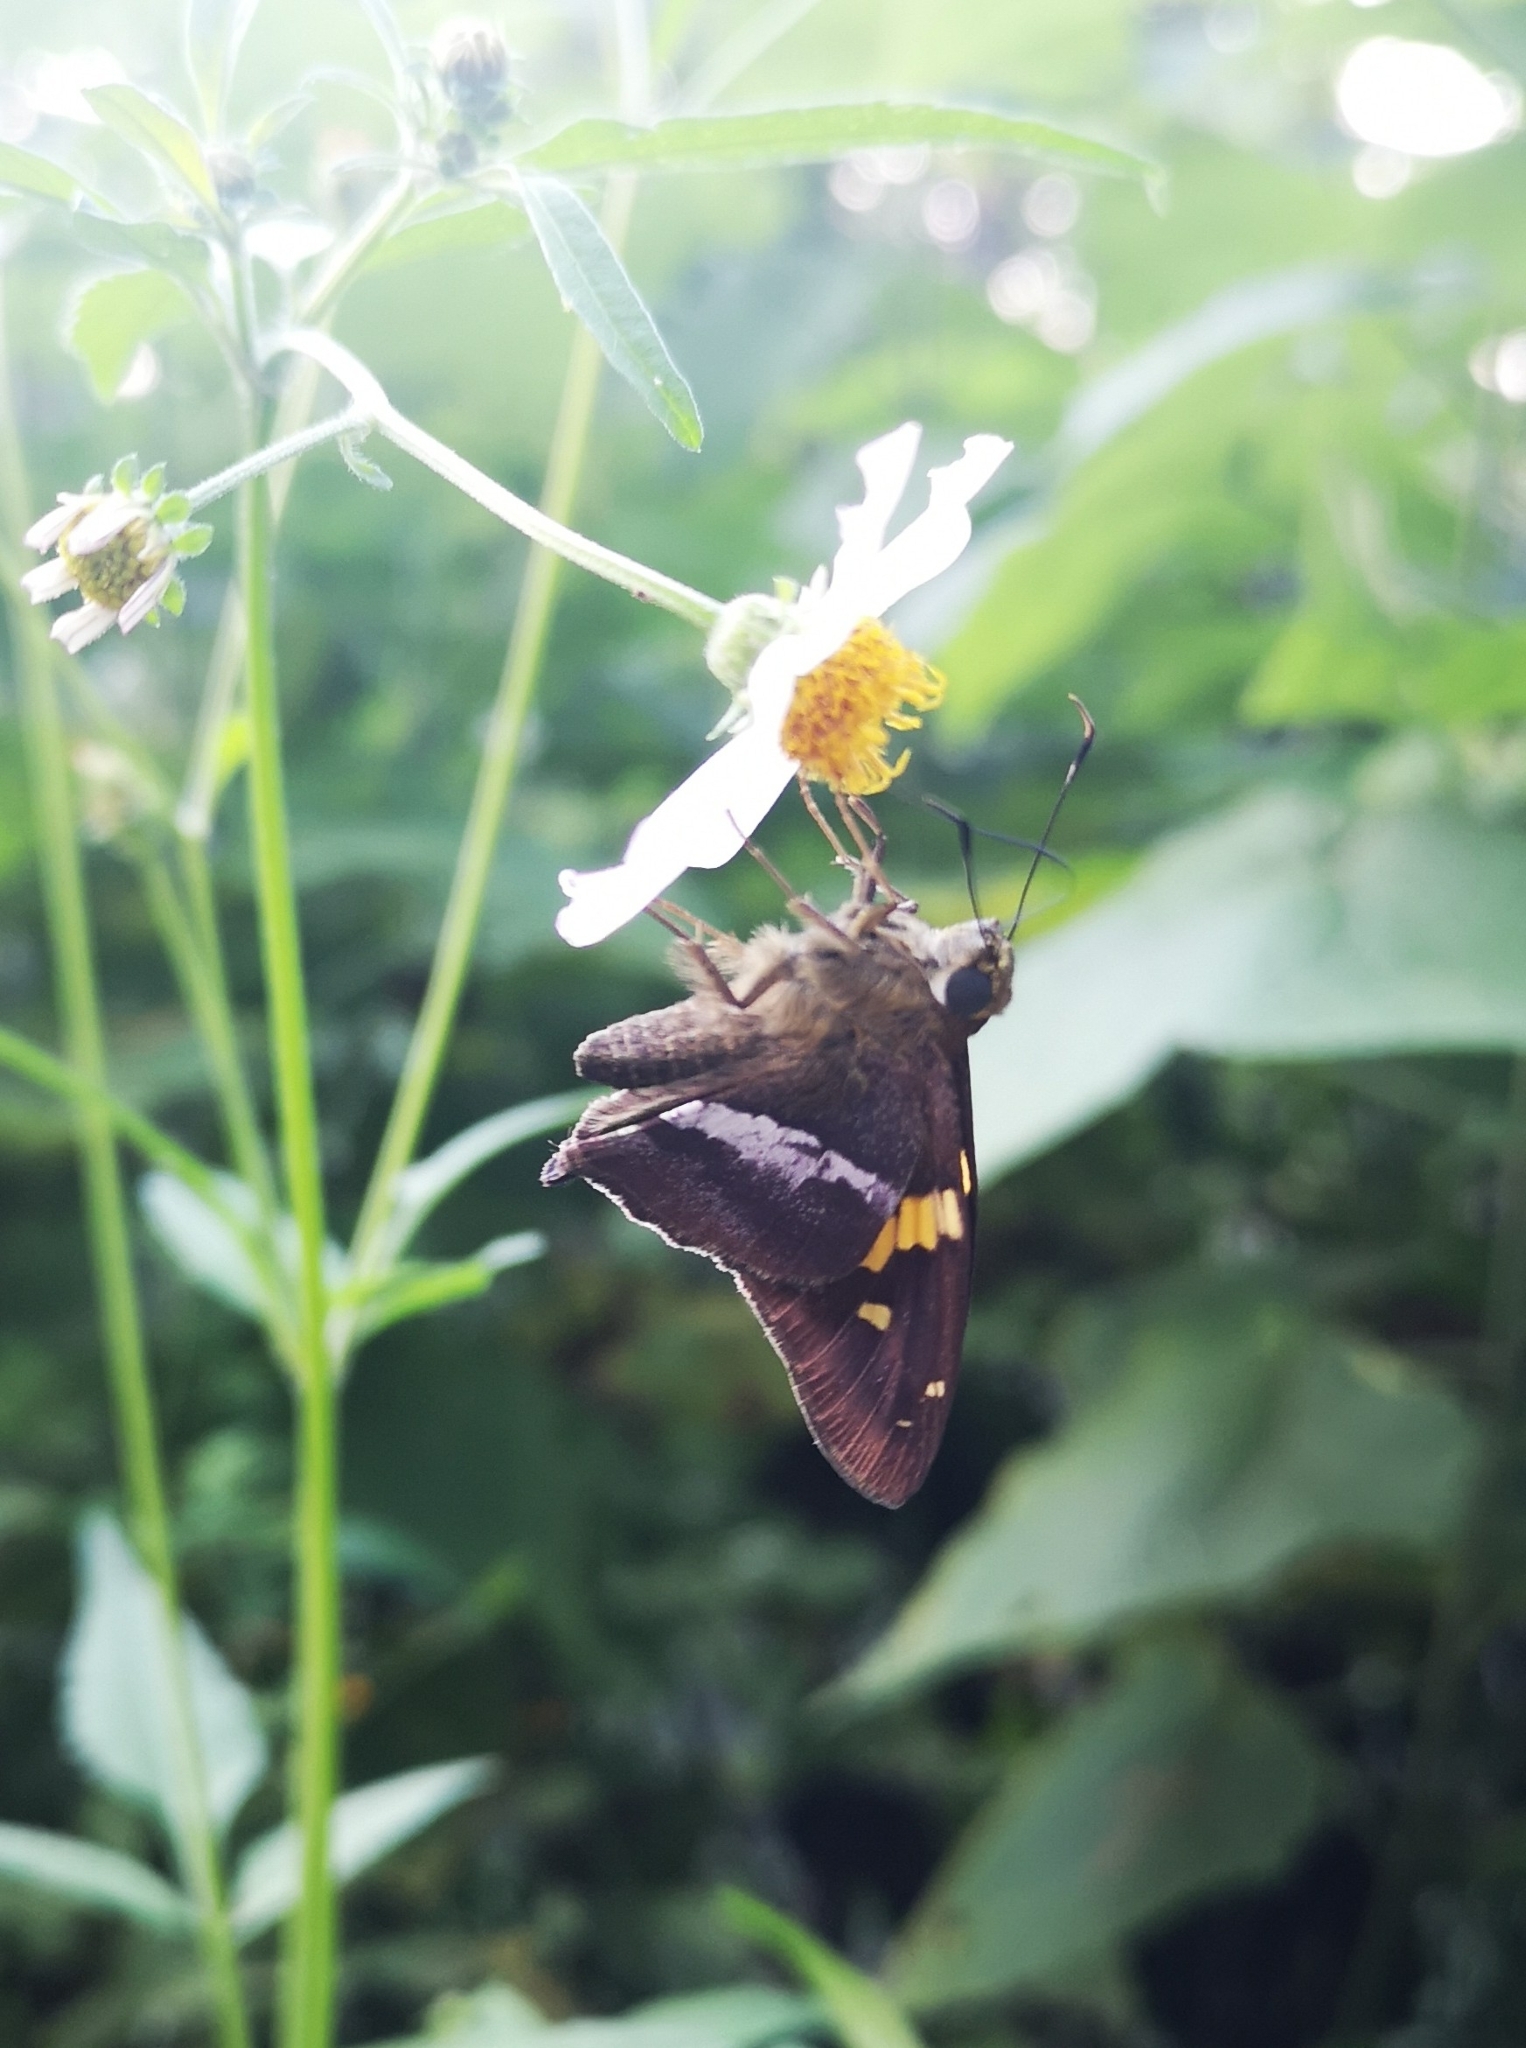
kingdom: Animalia
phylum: Arthropoda
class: Insecta
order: Lepidoptera
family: Hesperiidae
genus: Aguna
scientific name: Aguna asander
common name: Gold-spotted aguna
